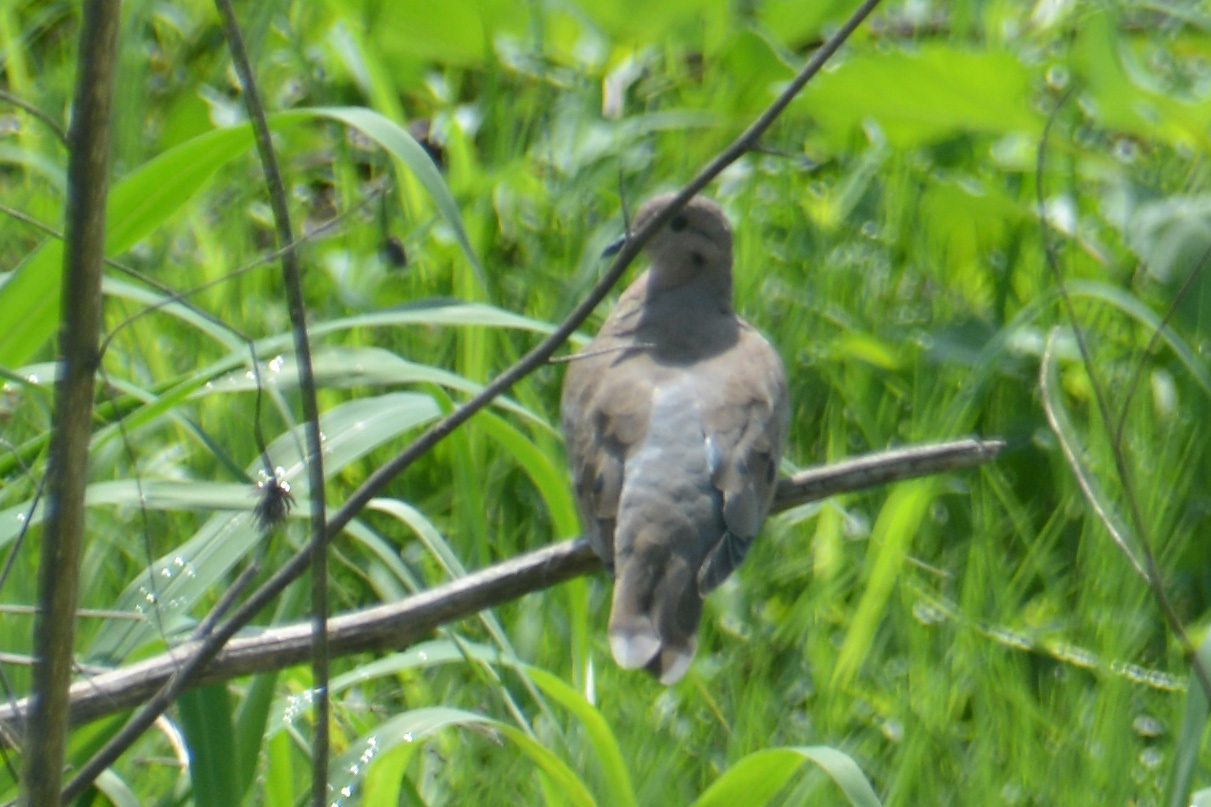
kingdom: Animalia
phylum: Chordata
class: Aves
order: Columbiformes
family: Columbidae
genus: Zenaida
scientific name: Zenaida auriculata
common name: Eared dove
